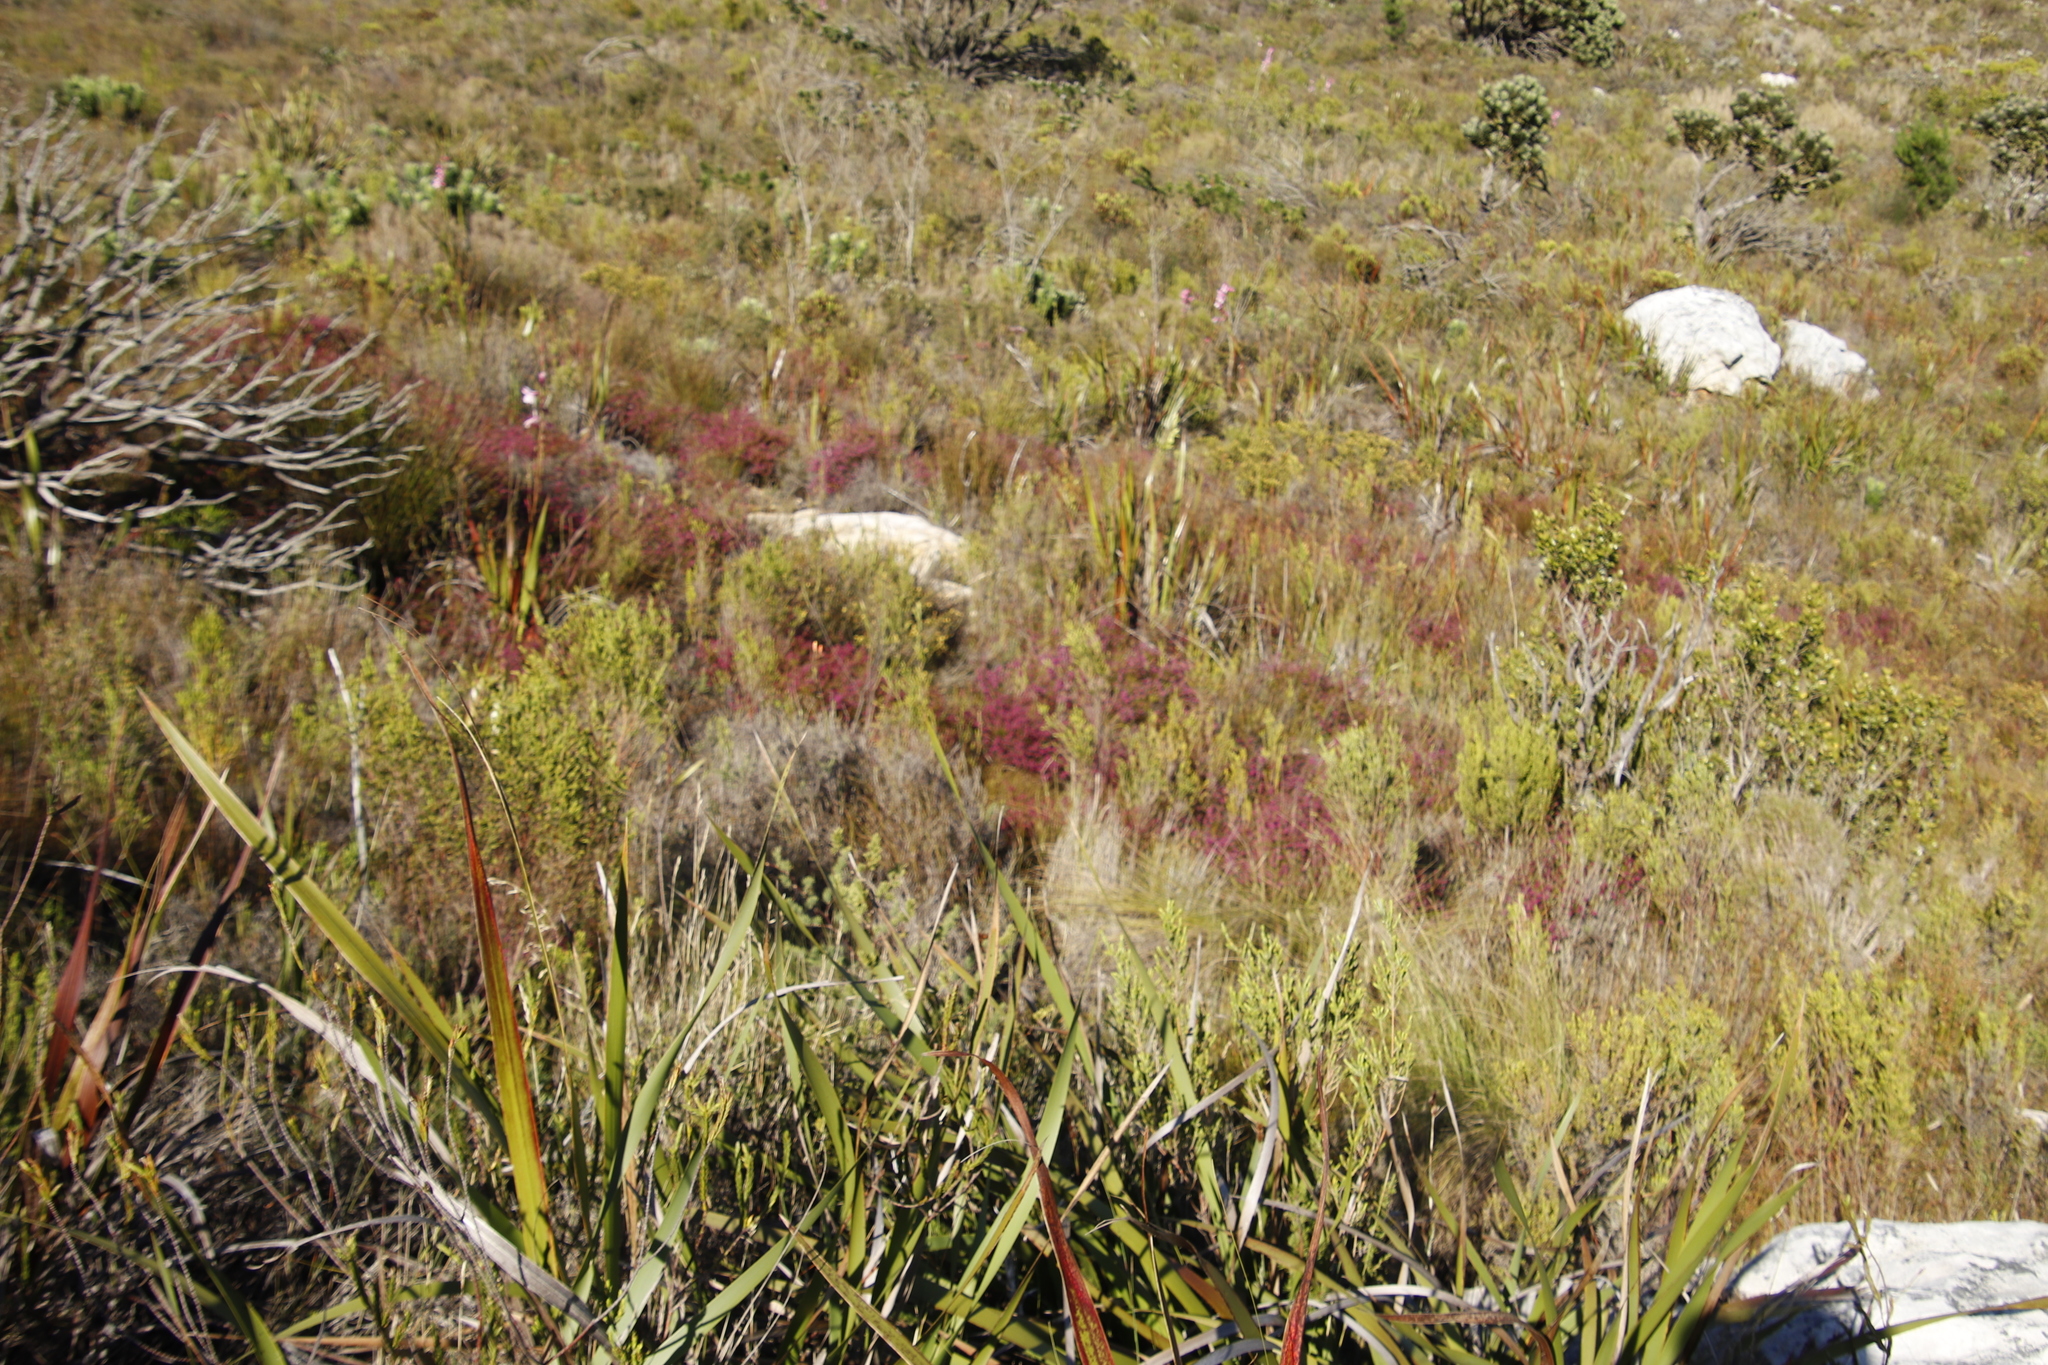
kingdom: Plantae
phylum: Tracheophyta
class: Magnoliopsida
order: Ericales
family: Ericaceae
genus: Erica
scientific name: Erica multumbellifera
